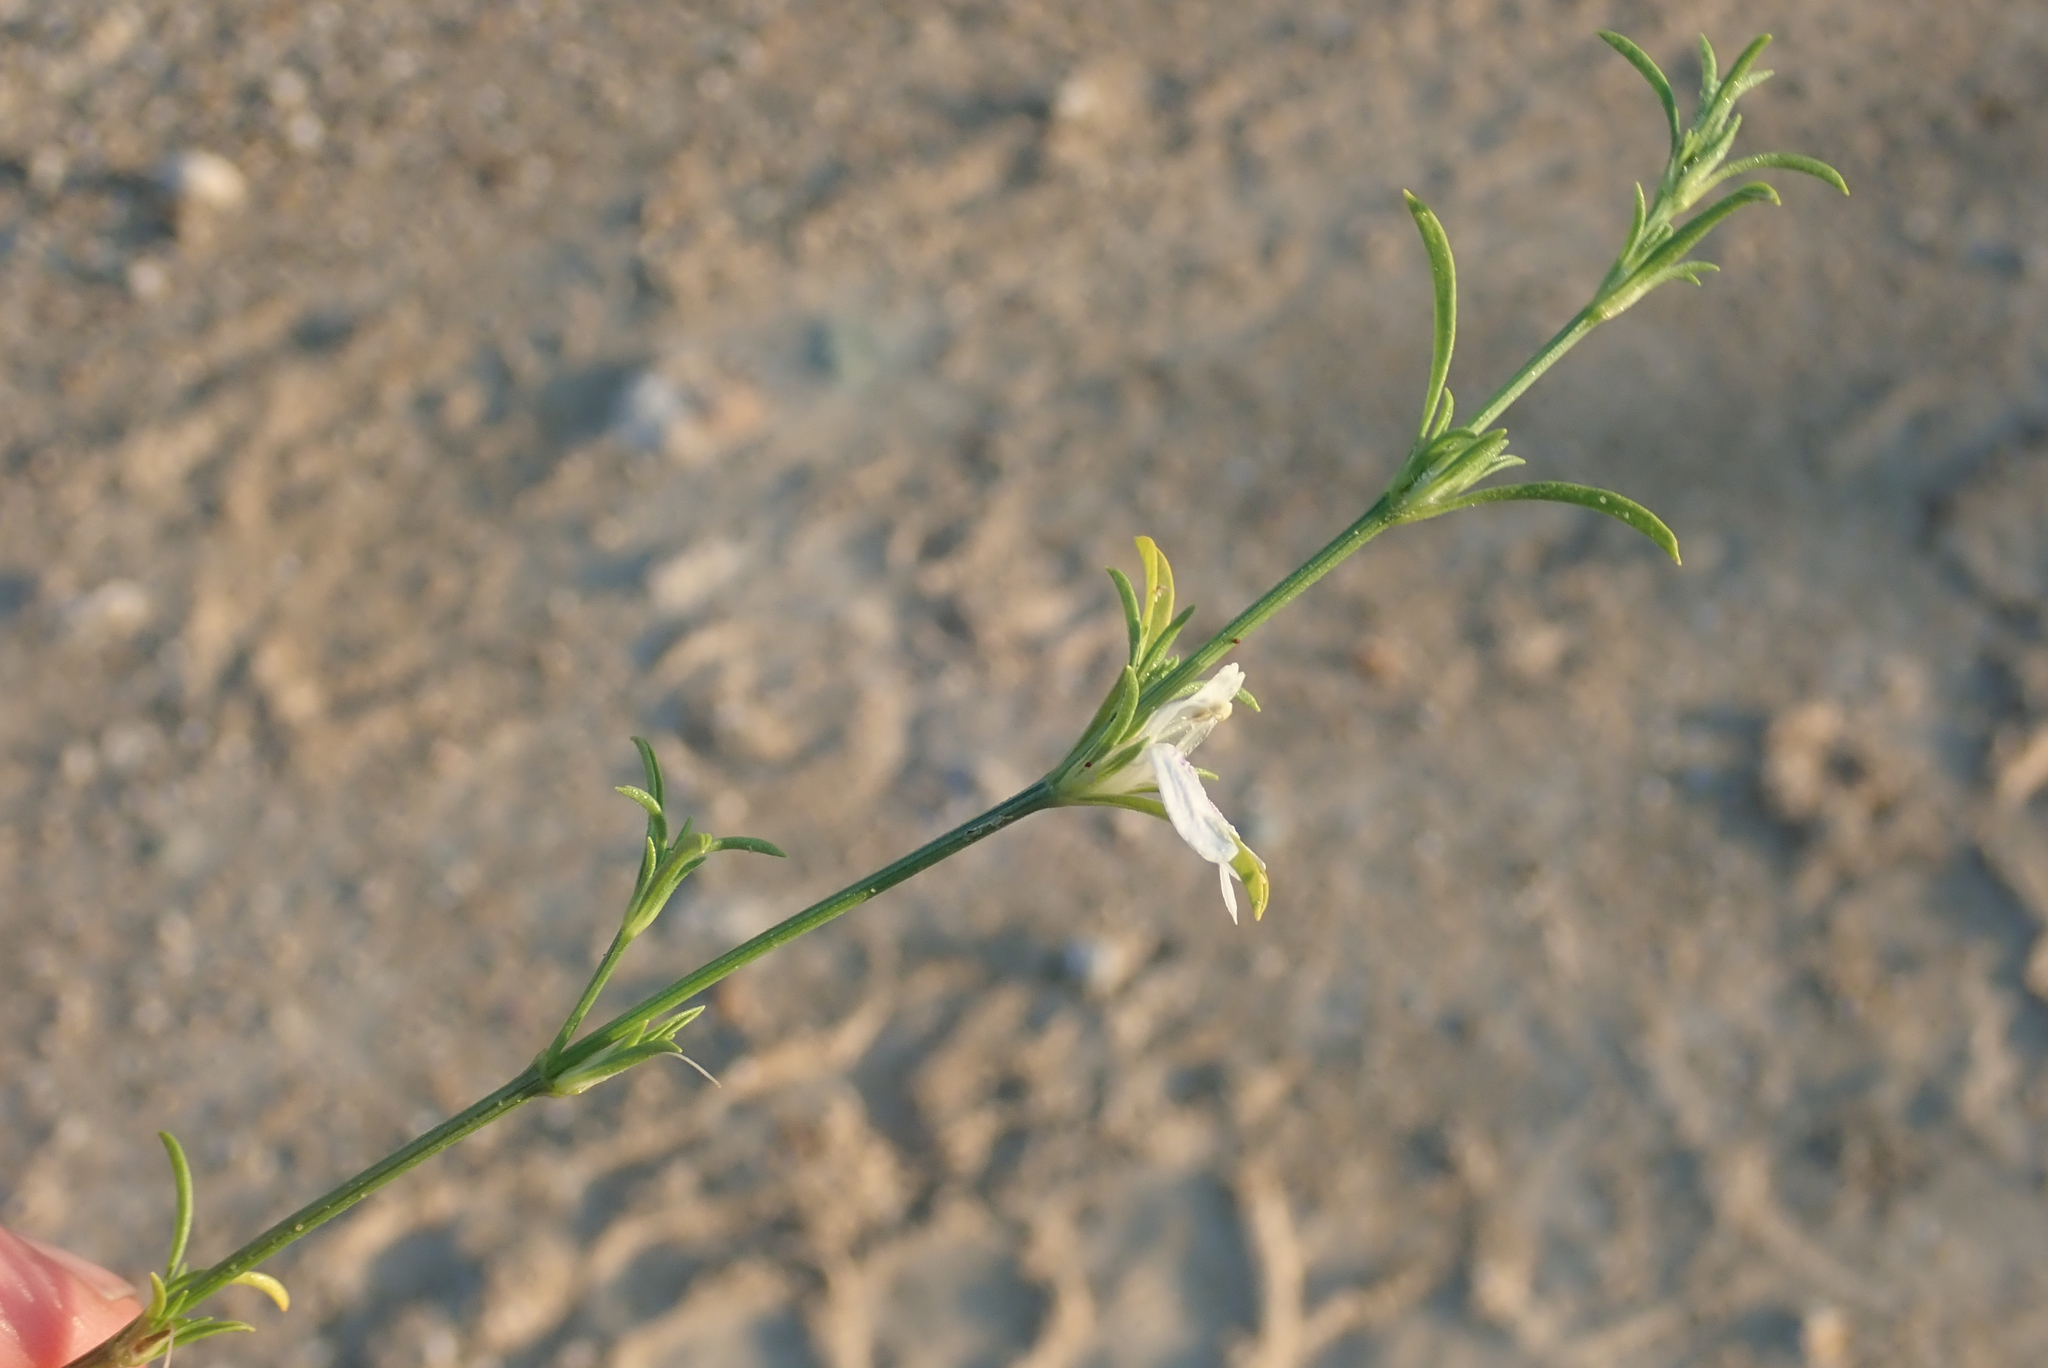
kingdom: Plantae
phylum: Tracheophyta
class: Magnoliopsida
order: Lamiales
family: Acanthaceae
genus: Pogonospermum
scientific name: Pogonospermum
